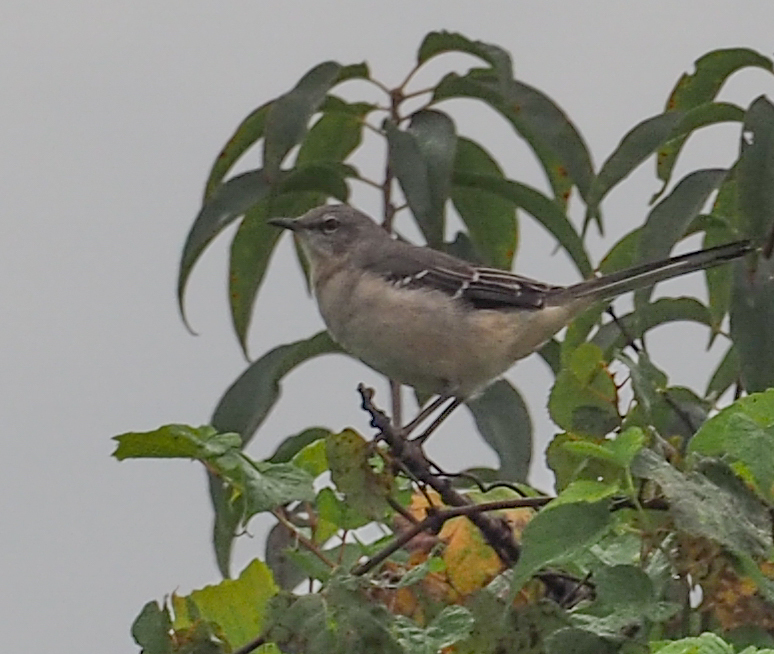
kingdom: Animalia
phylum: Chordata
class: Aves
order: Passeriformes
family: Mimidae
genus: Mimus
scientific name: Mimus polyglottos
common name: Northern mockingbird
